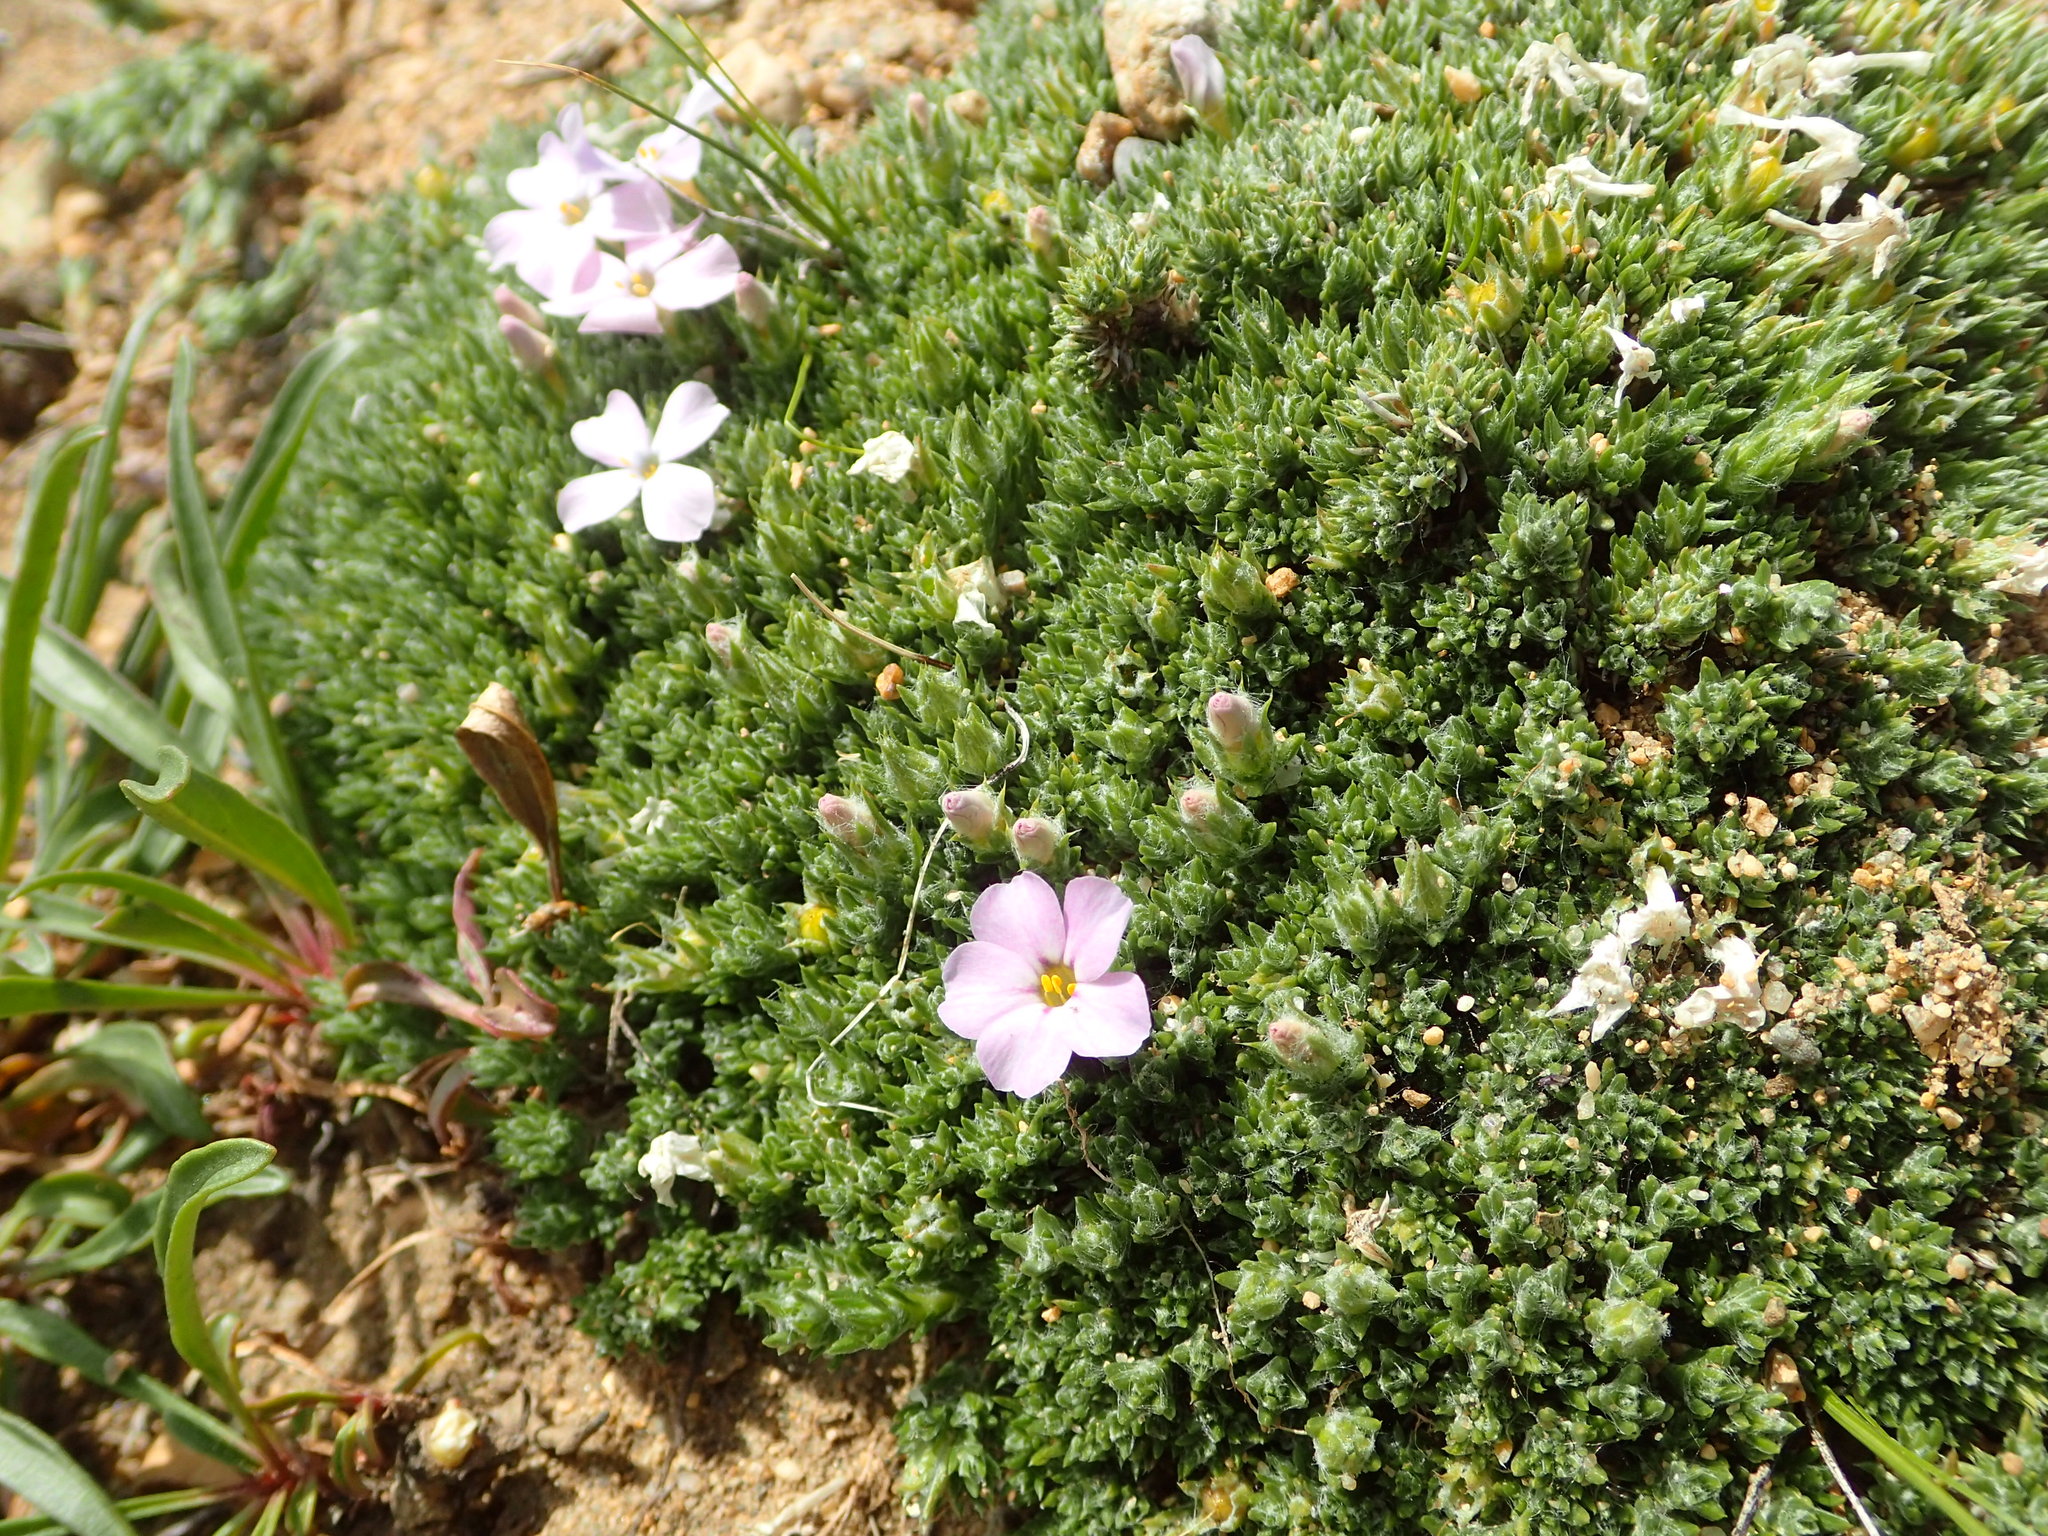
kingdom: Plantae
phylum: Tracheophyta
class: Magnoliopsida
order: Ericales
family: Polemoniaceae
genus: Phlox
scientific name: Phlox hoodii
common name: Moss phlox
